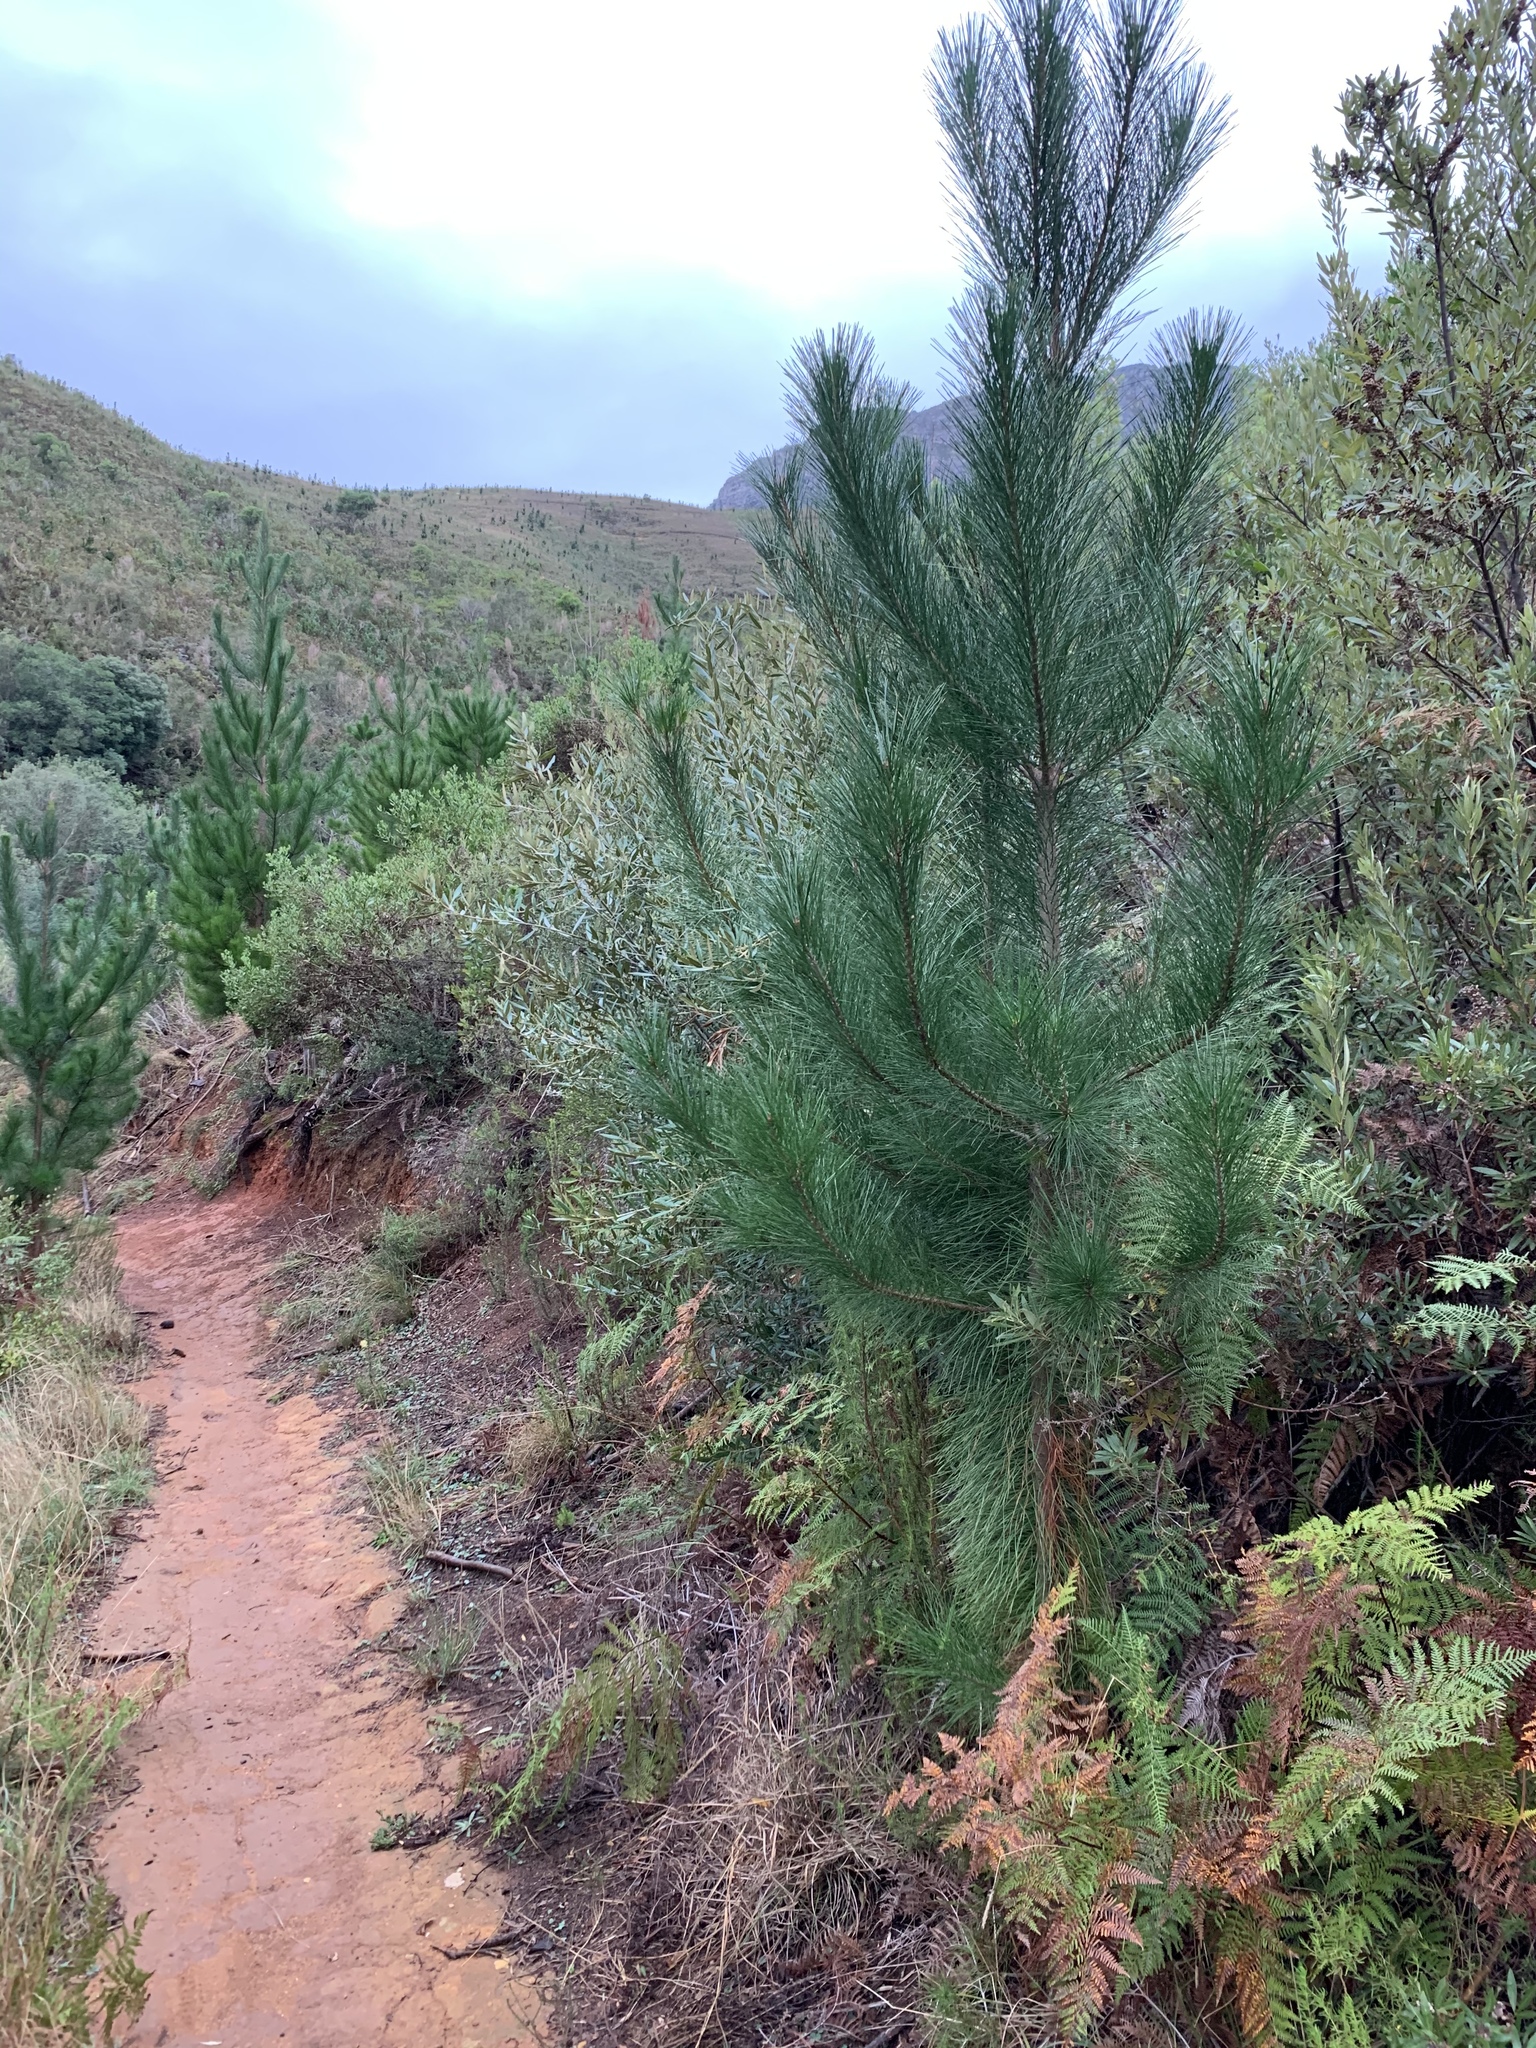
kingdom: Plantae
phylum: Tracheophyta
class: Pinopsida
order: Pinales
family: Pinaceae
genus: Pinus
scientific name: Pinus radiata
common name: Monterey pine
